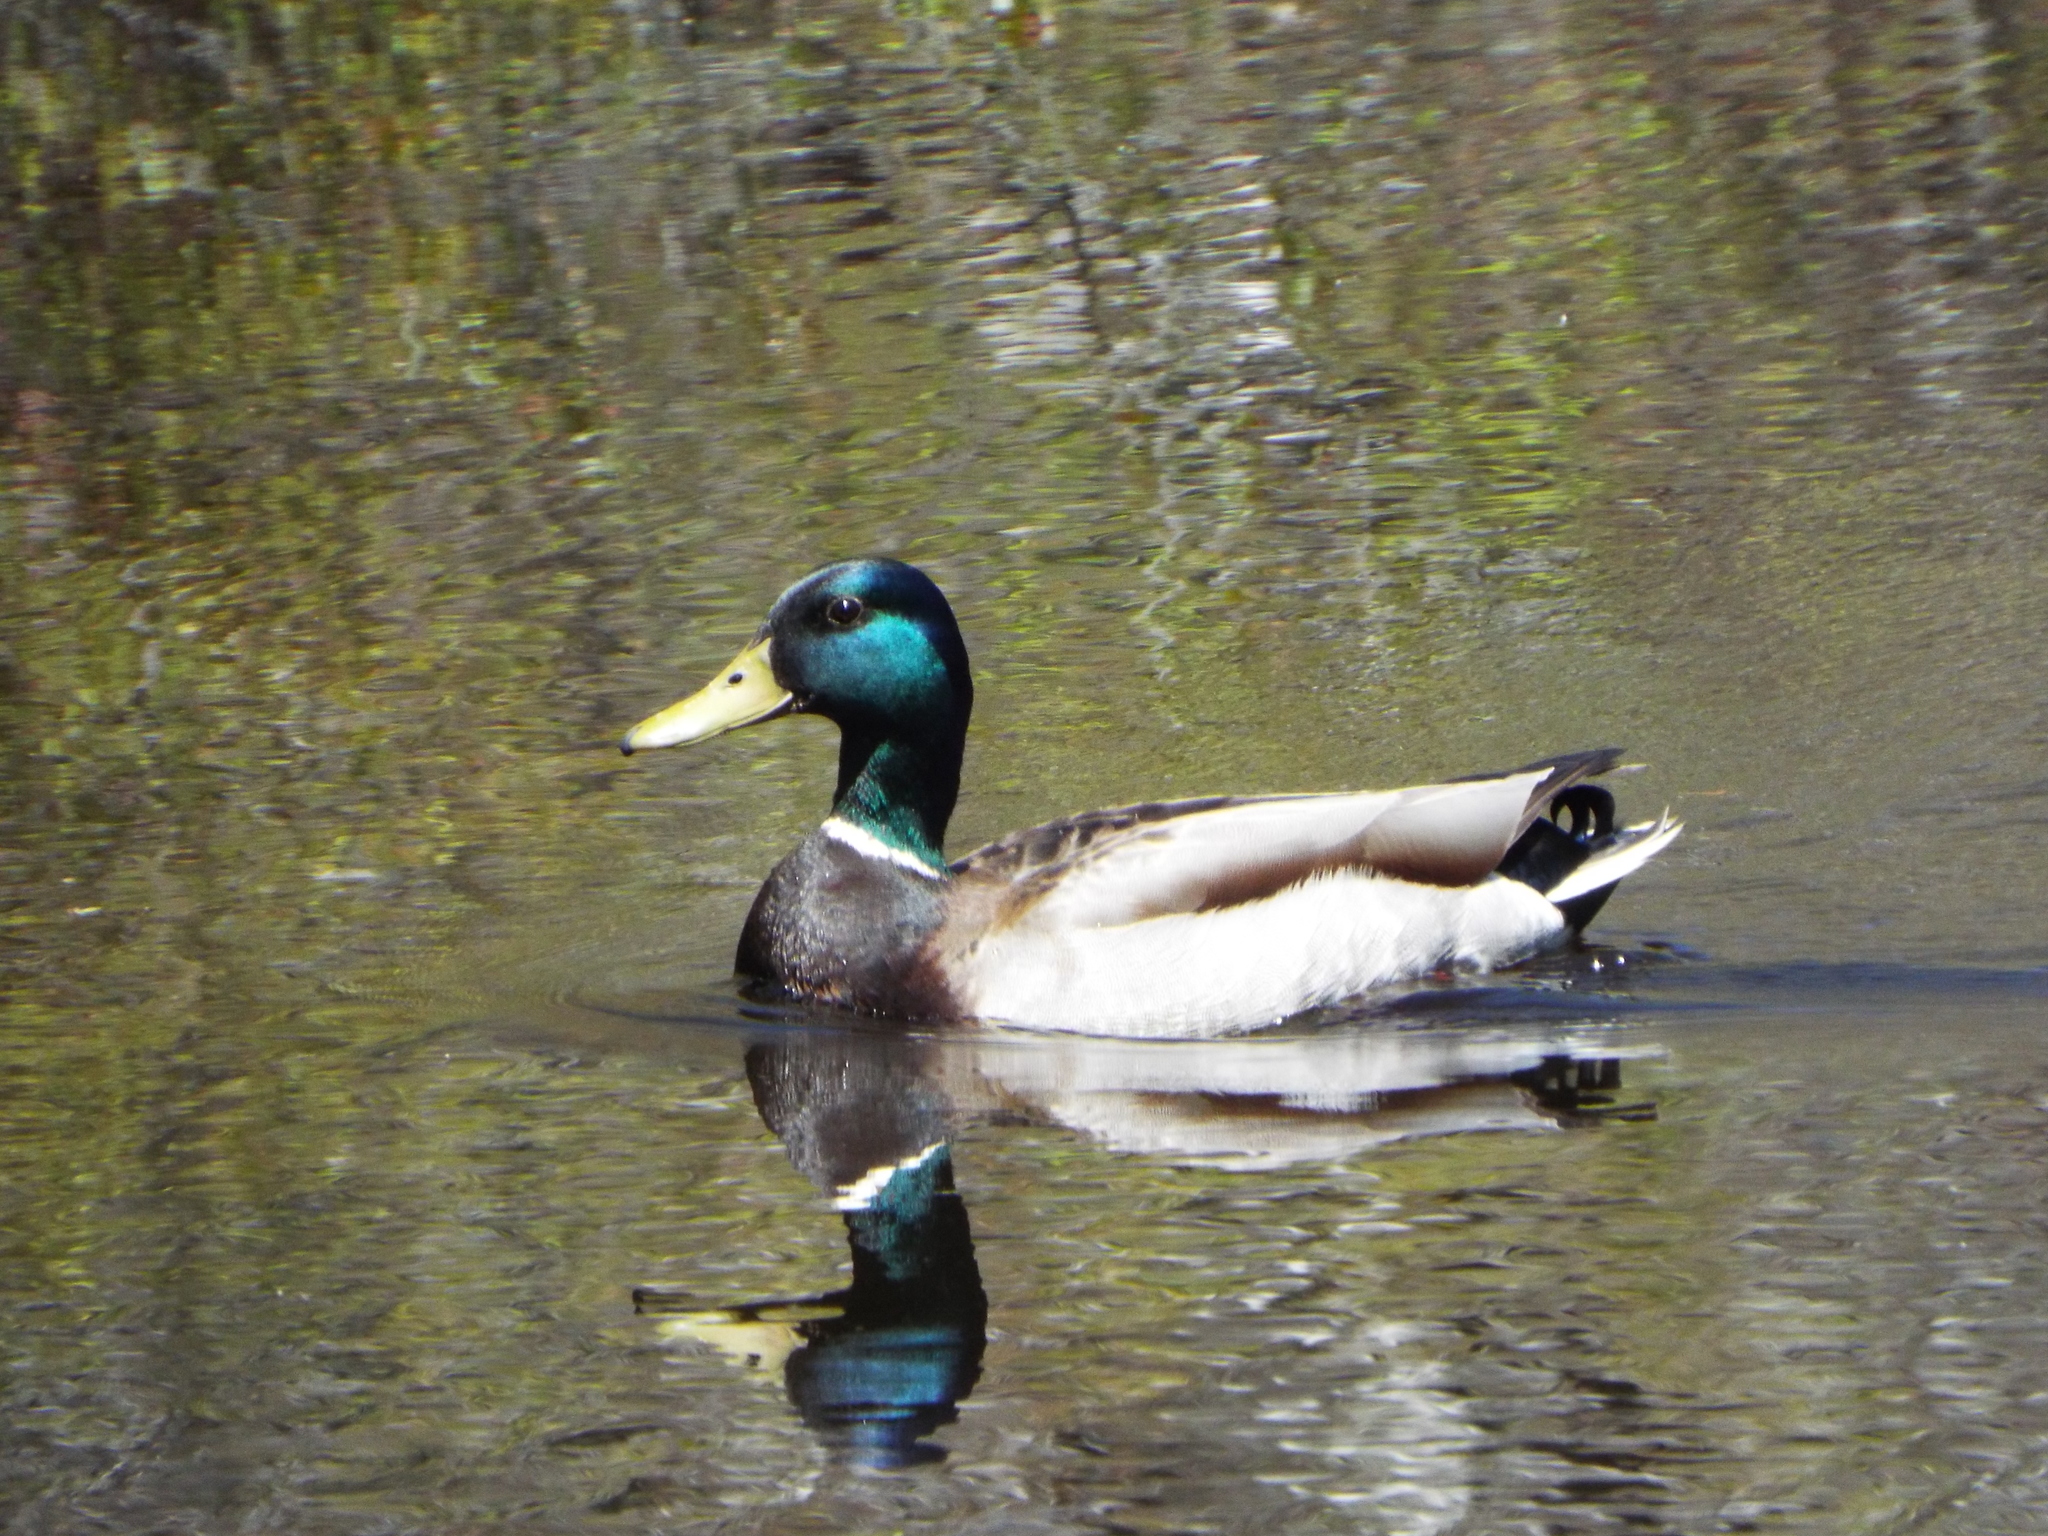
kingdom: Animalia
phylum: Chordata
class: Aves
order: Anseriformes
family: Anatidae
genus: Anas
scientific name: Anas platyrhynchos
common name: Mallard
